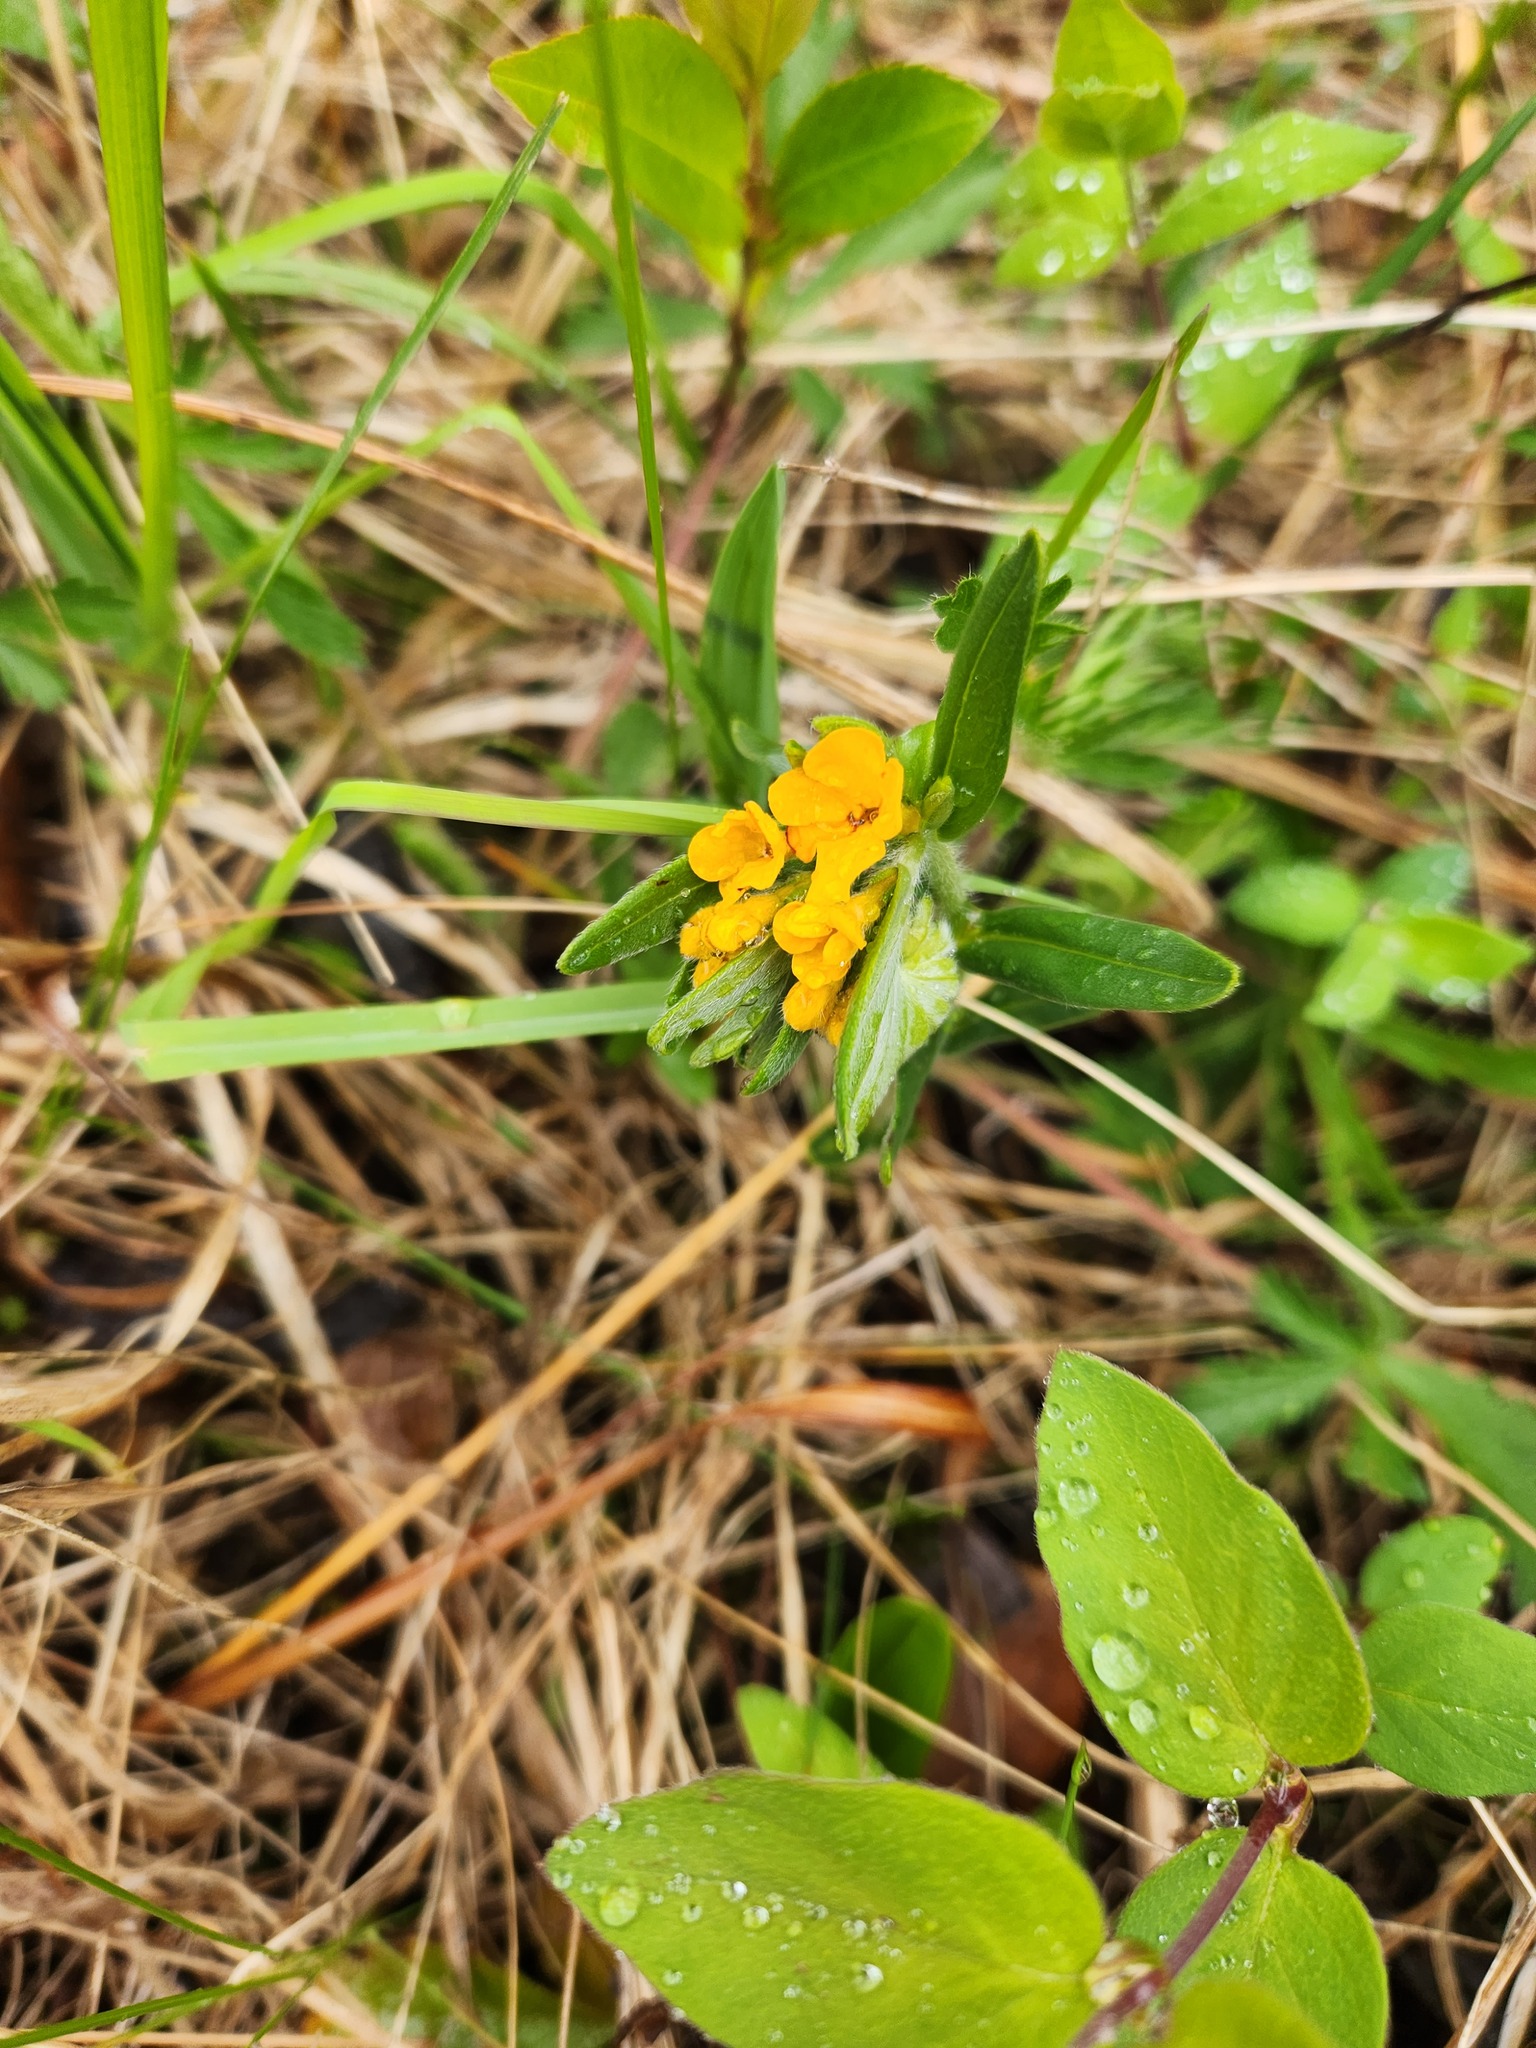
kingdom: Plantae
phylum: Tracheophyta
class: Magnoliopsida
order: Boraginales
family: Boraginaceae
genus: Lithospermum
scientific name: Lithospermum canescens
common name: Hoary puccoon
